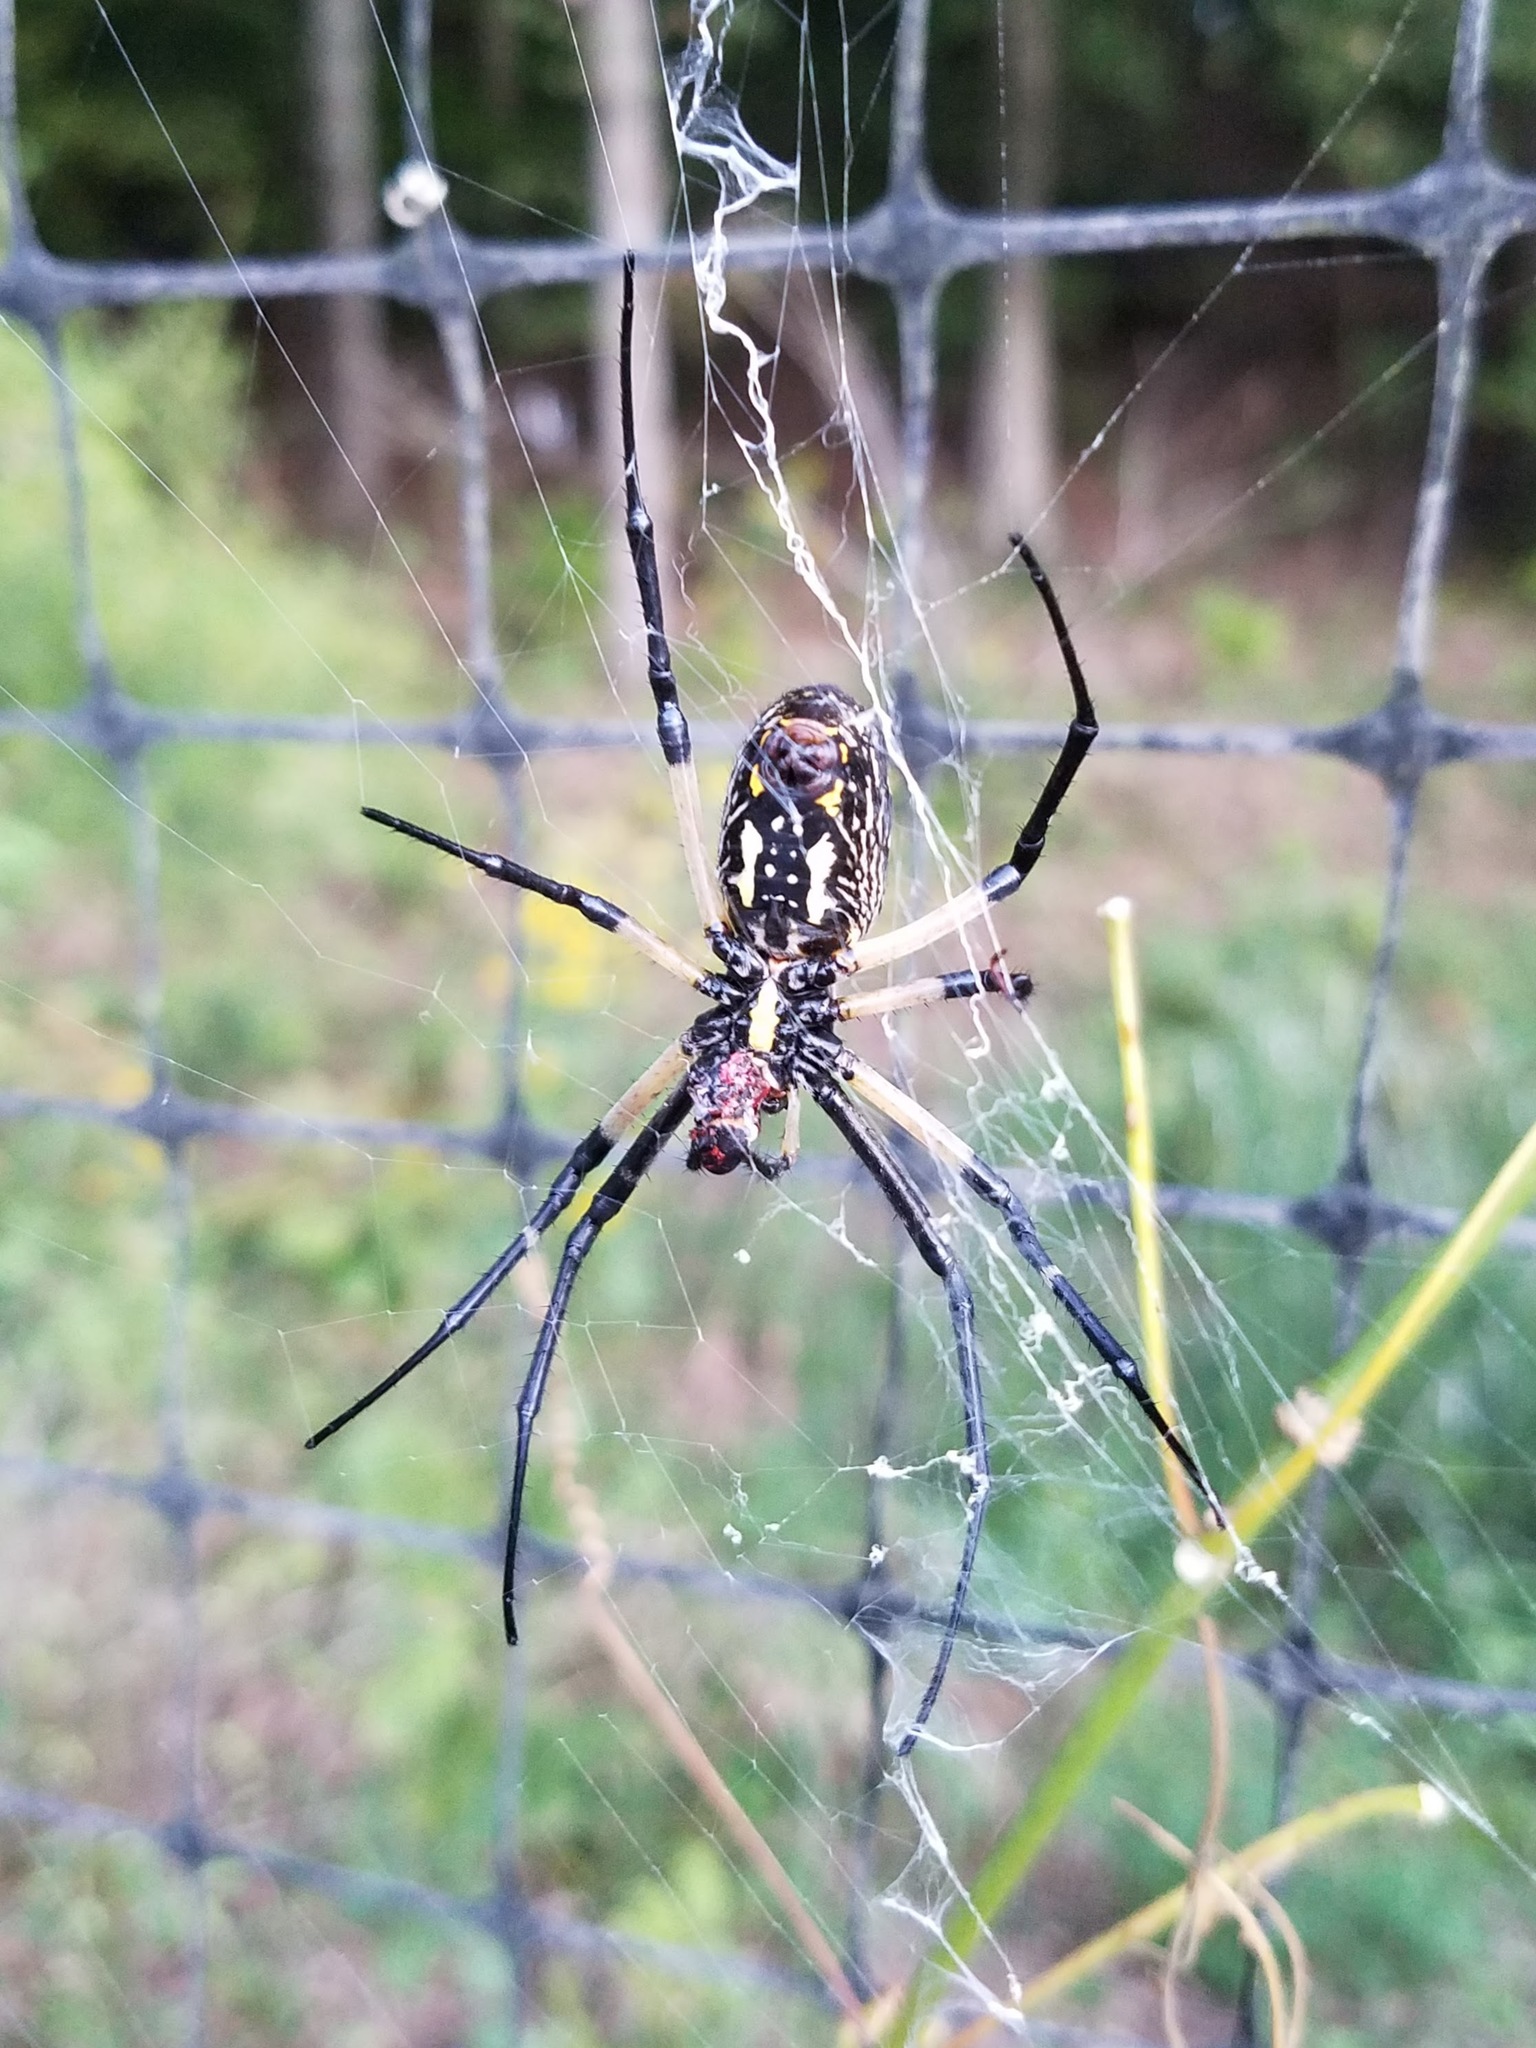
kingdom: Animalia
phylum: Arthropoda
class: Arachnida
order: Araneae
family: Araneidae
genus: Argiope
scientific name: Argiope aurantia
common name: Orb weavers
